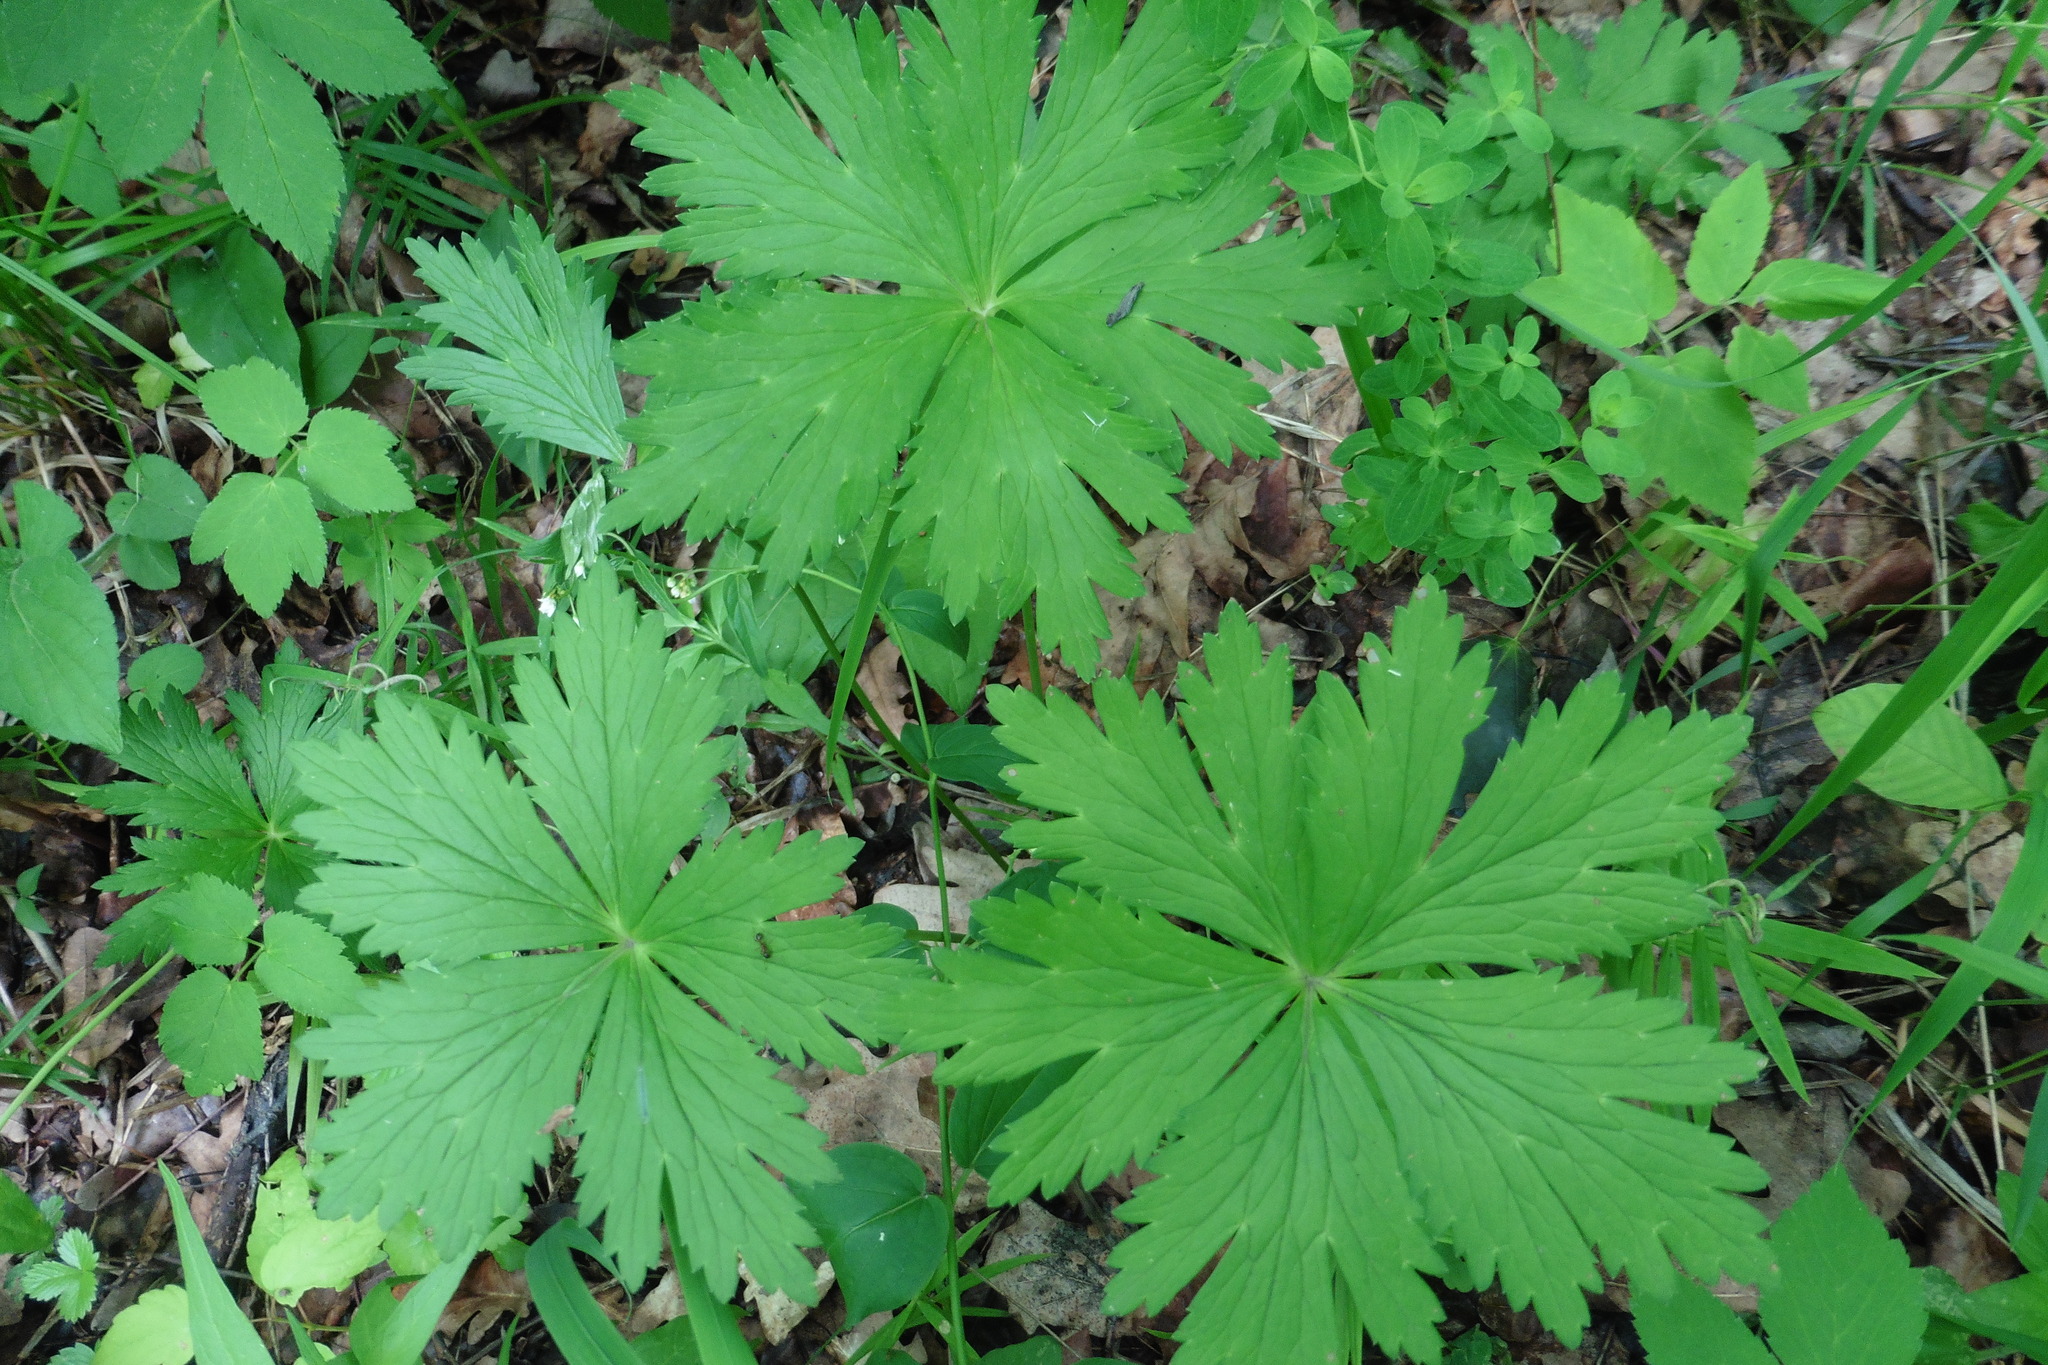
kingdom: Plantae
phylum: Tracheophyta
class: Magnoliopsida
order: Ranunculales
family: Ranunculaceae
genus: Trollius
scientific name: Trollius europaeus
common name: European globeflower
